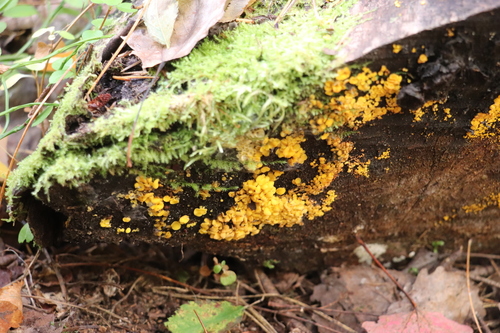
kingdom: Fungi
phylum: Ascomycota
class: Leotiomycetes
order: Helotiales
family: Pezizellaceae
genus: Calycina
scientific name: Calycina citrina
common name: Yellow fairy cups
